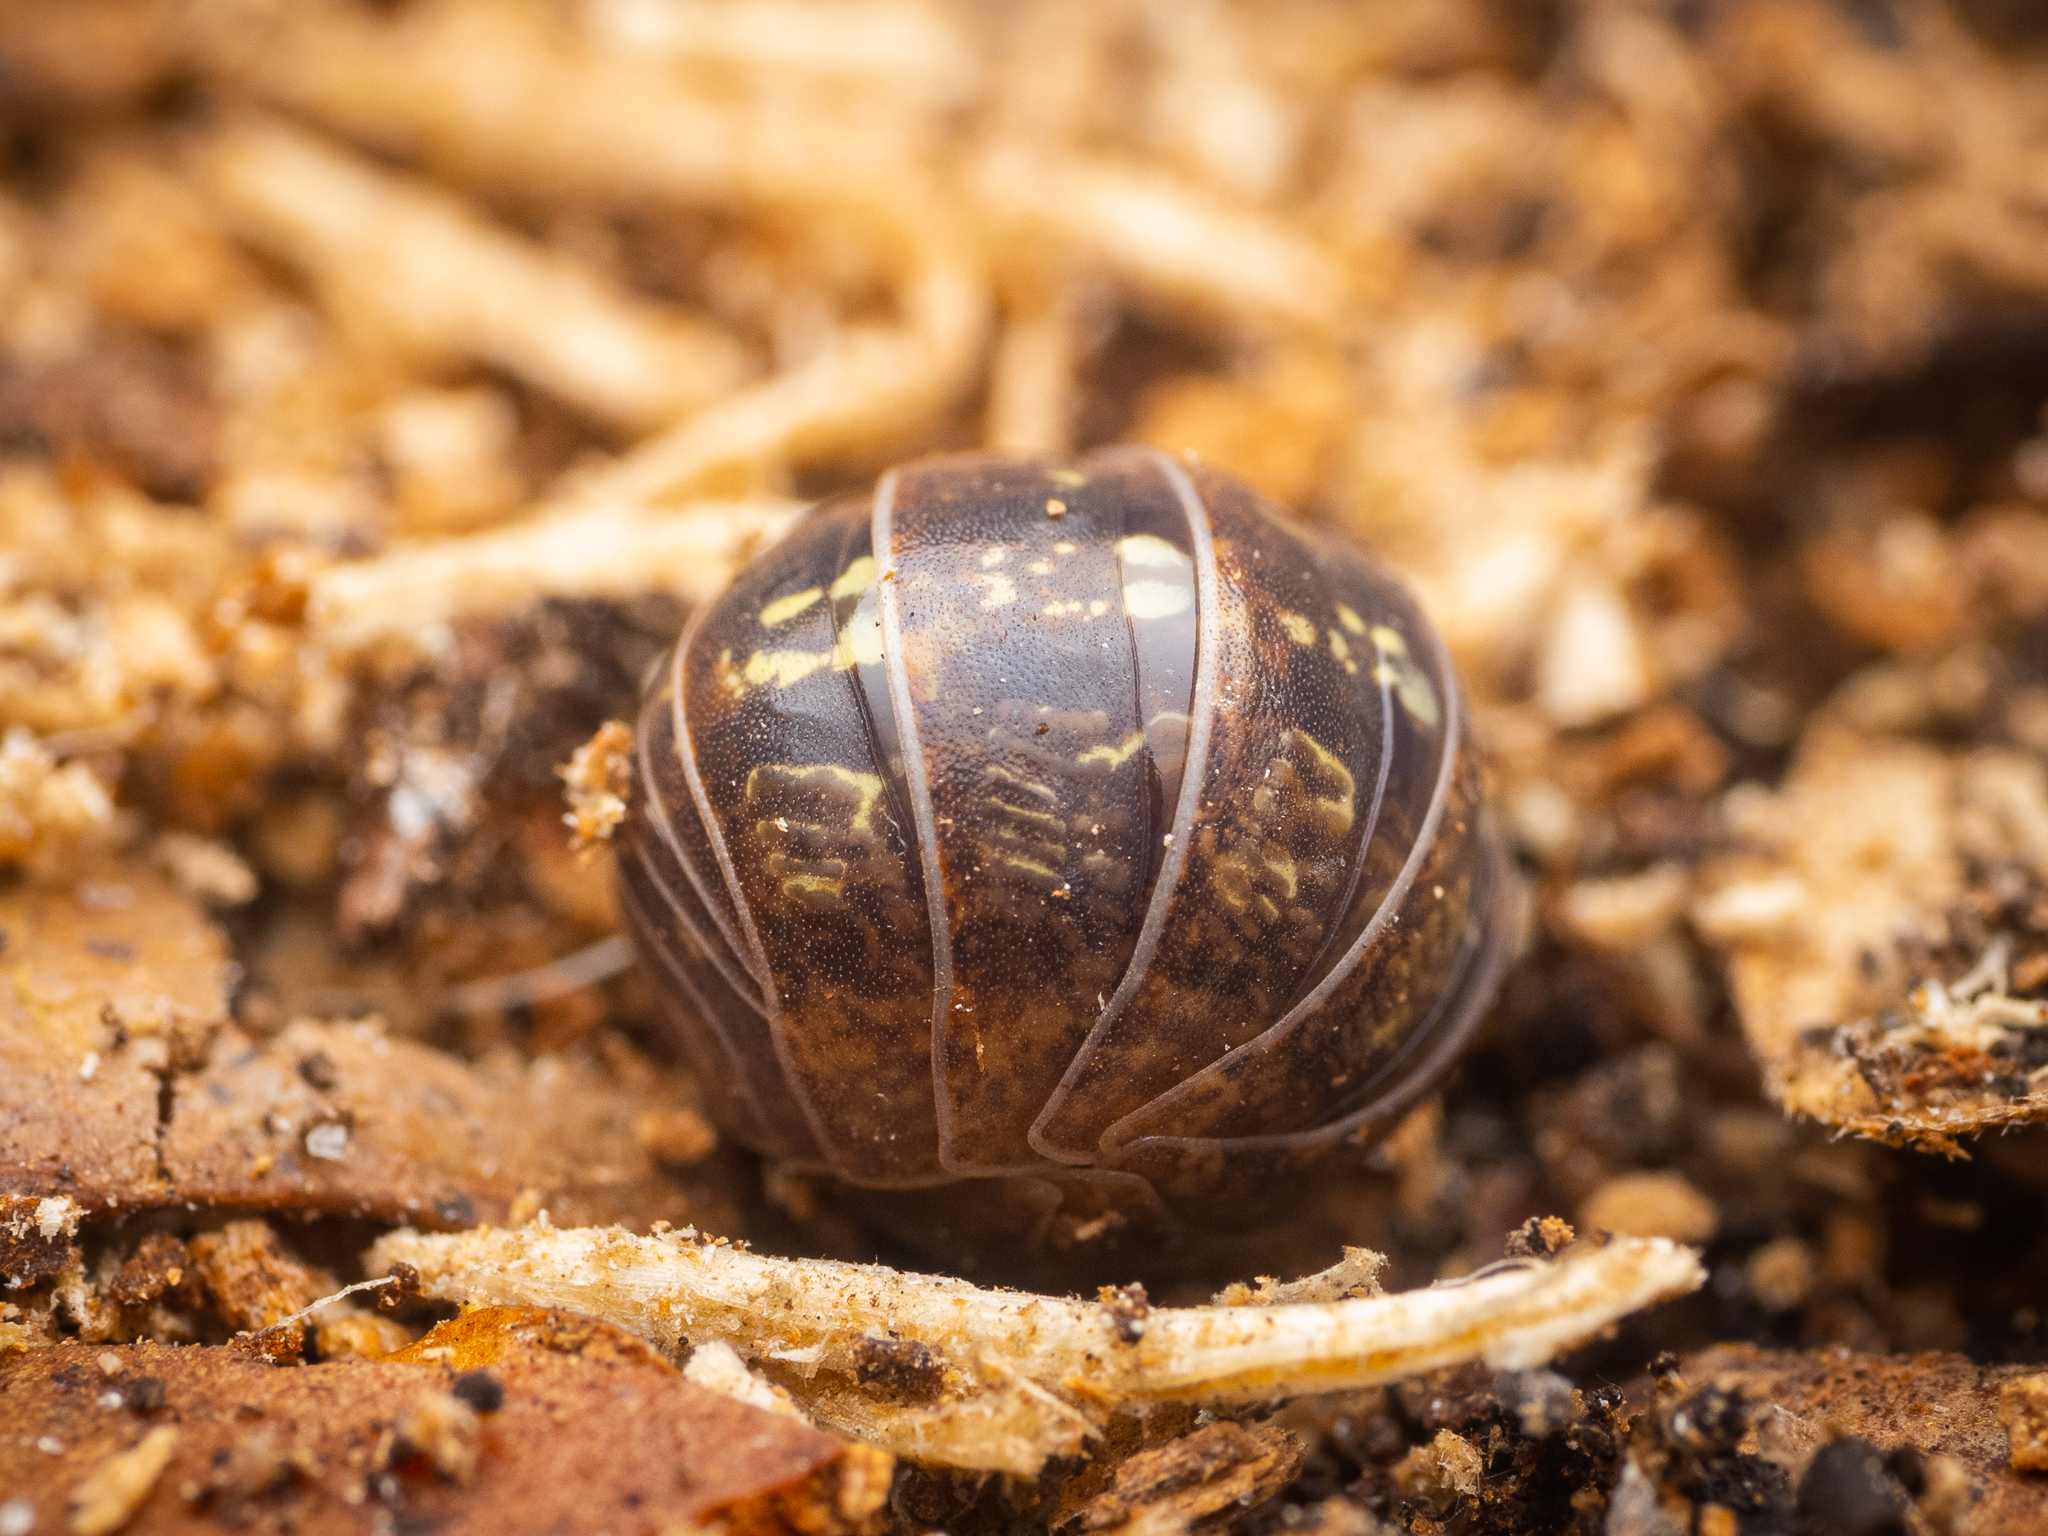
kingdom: Animalia
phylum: Arthropoda
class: Malacostraca
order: Isopoda
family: Armadillidiidae
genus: Armadillidium
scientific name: Armadillidium vulgare
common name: Common pill woodlouse
